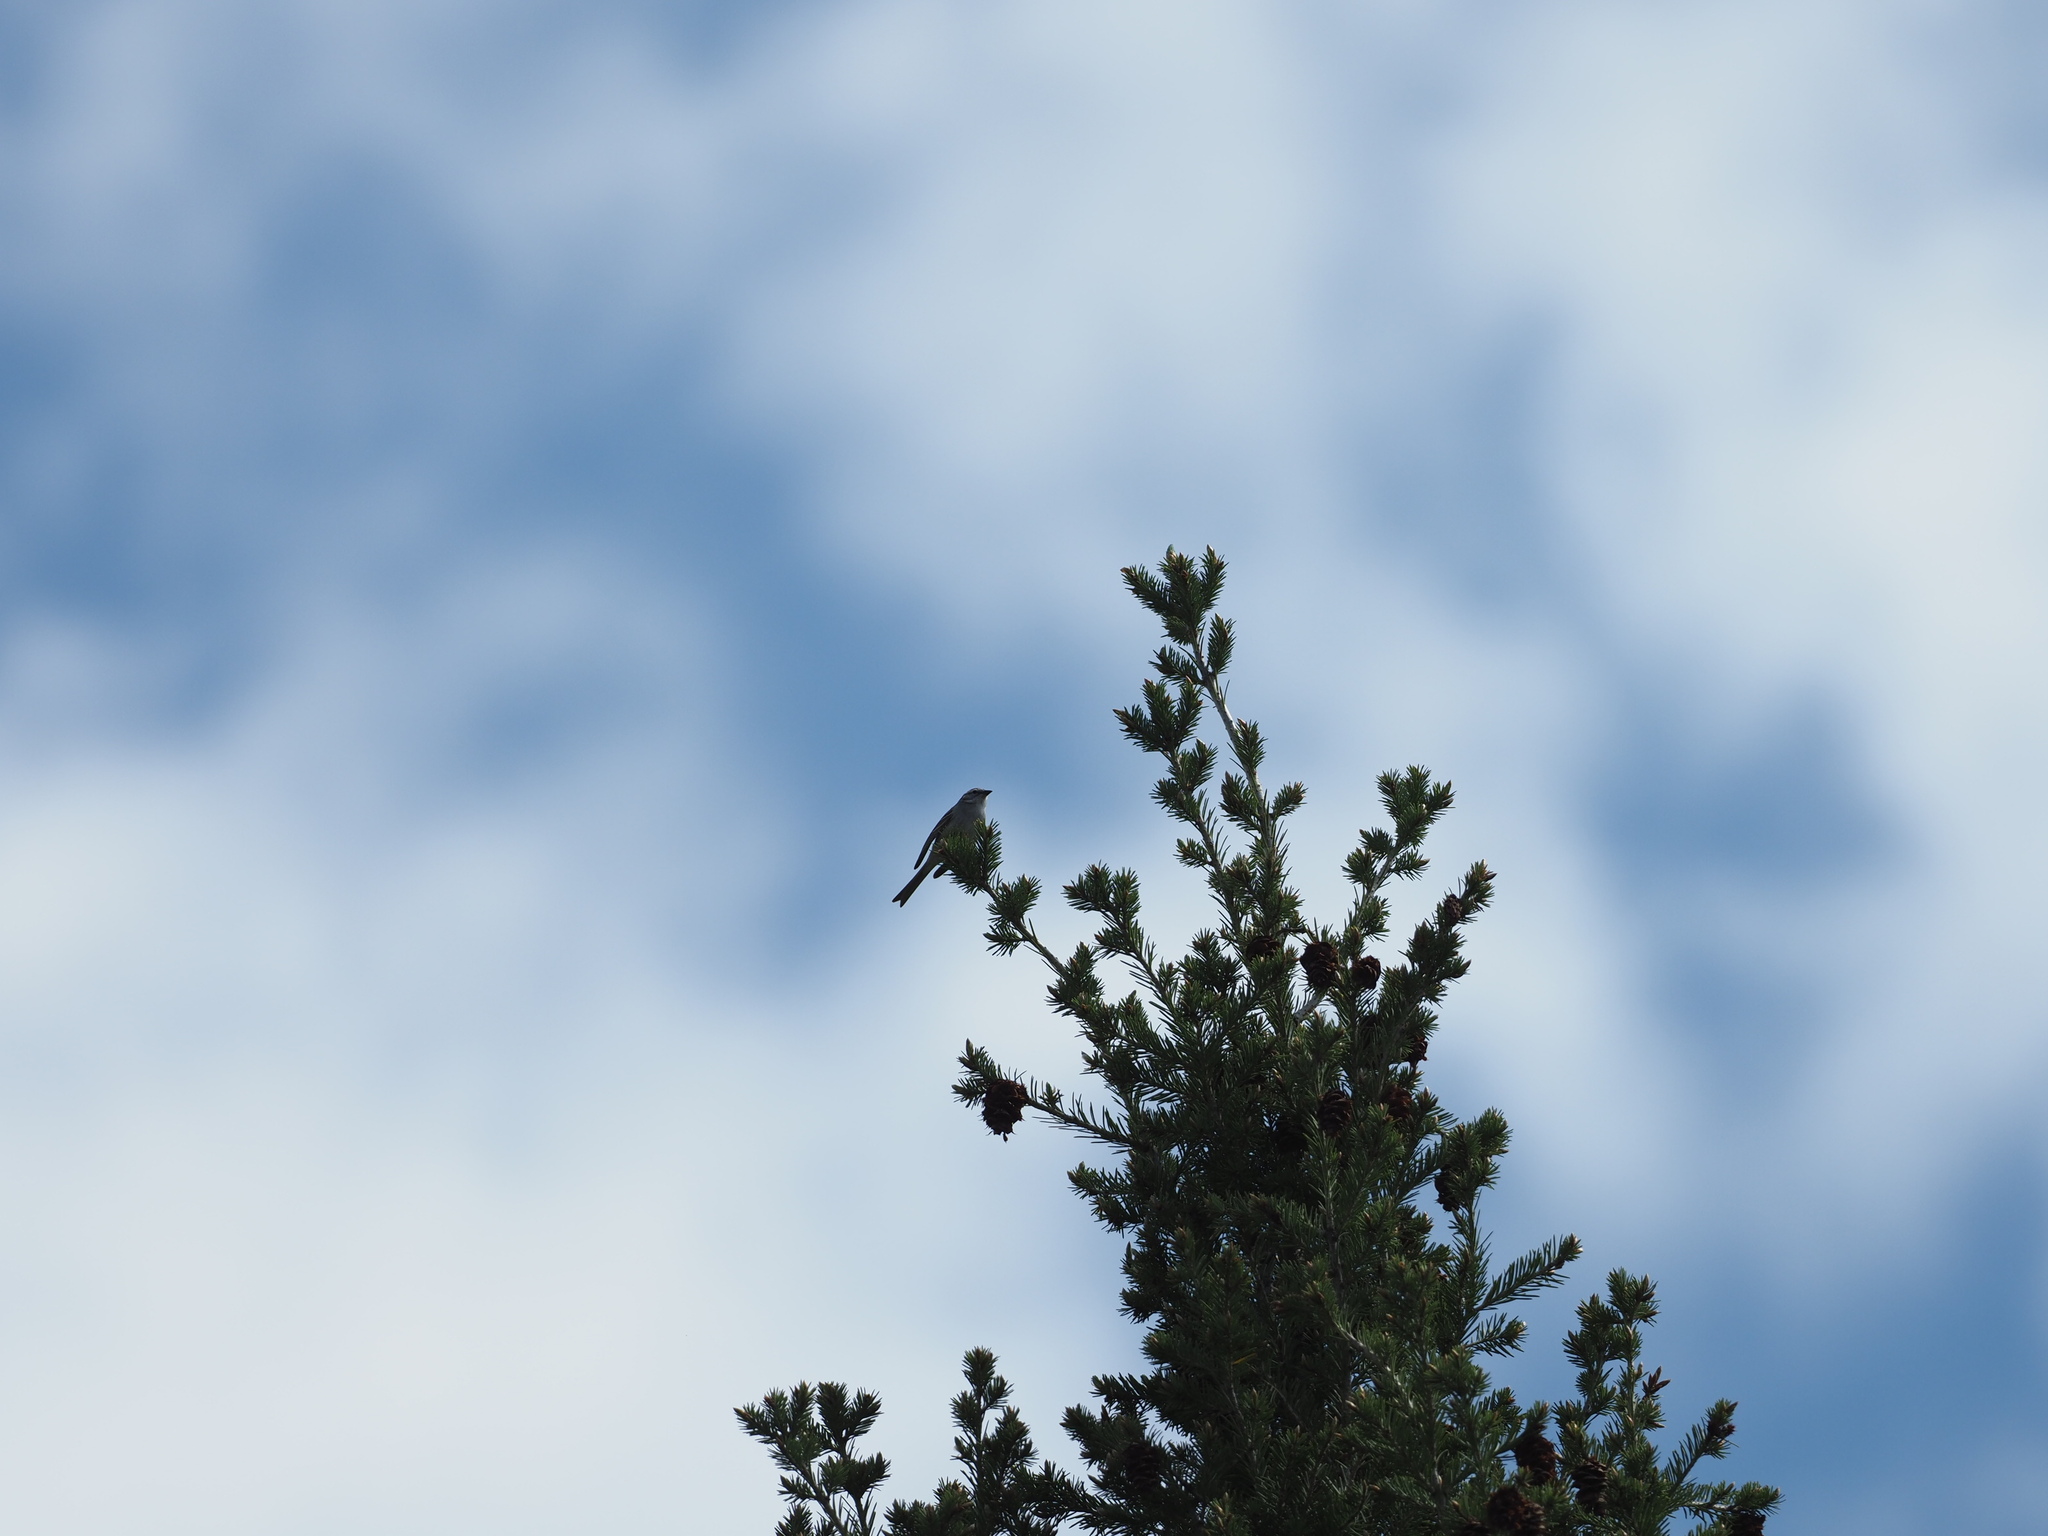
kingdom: Animalia
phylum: Chordata
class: Aves
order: Passeriformes
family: Passerellidae
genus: Spizella
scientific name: Spizella passerina
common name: Chipping sparrow
